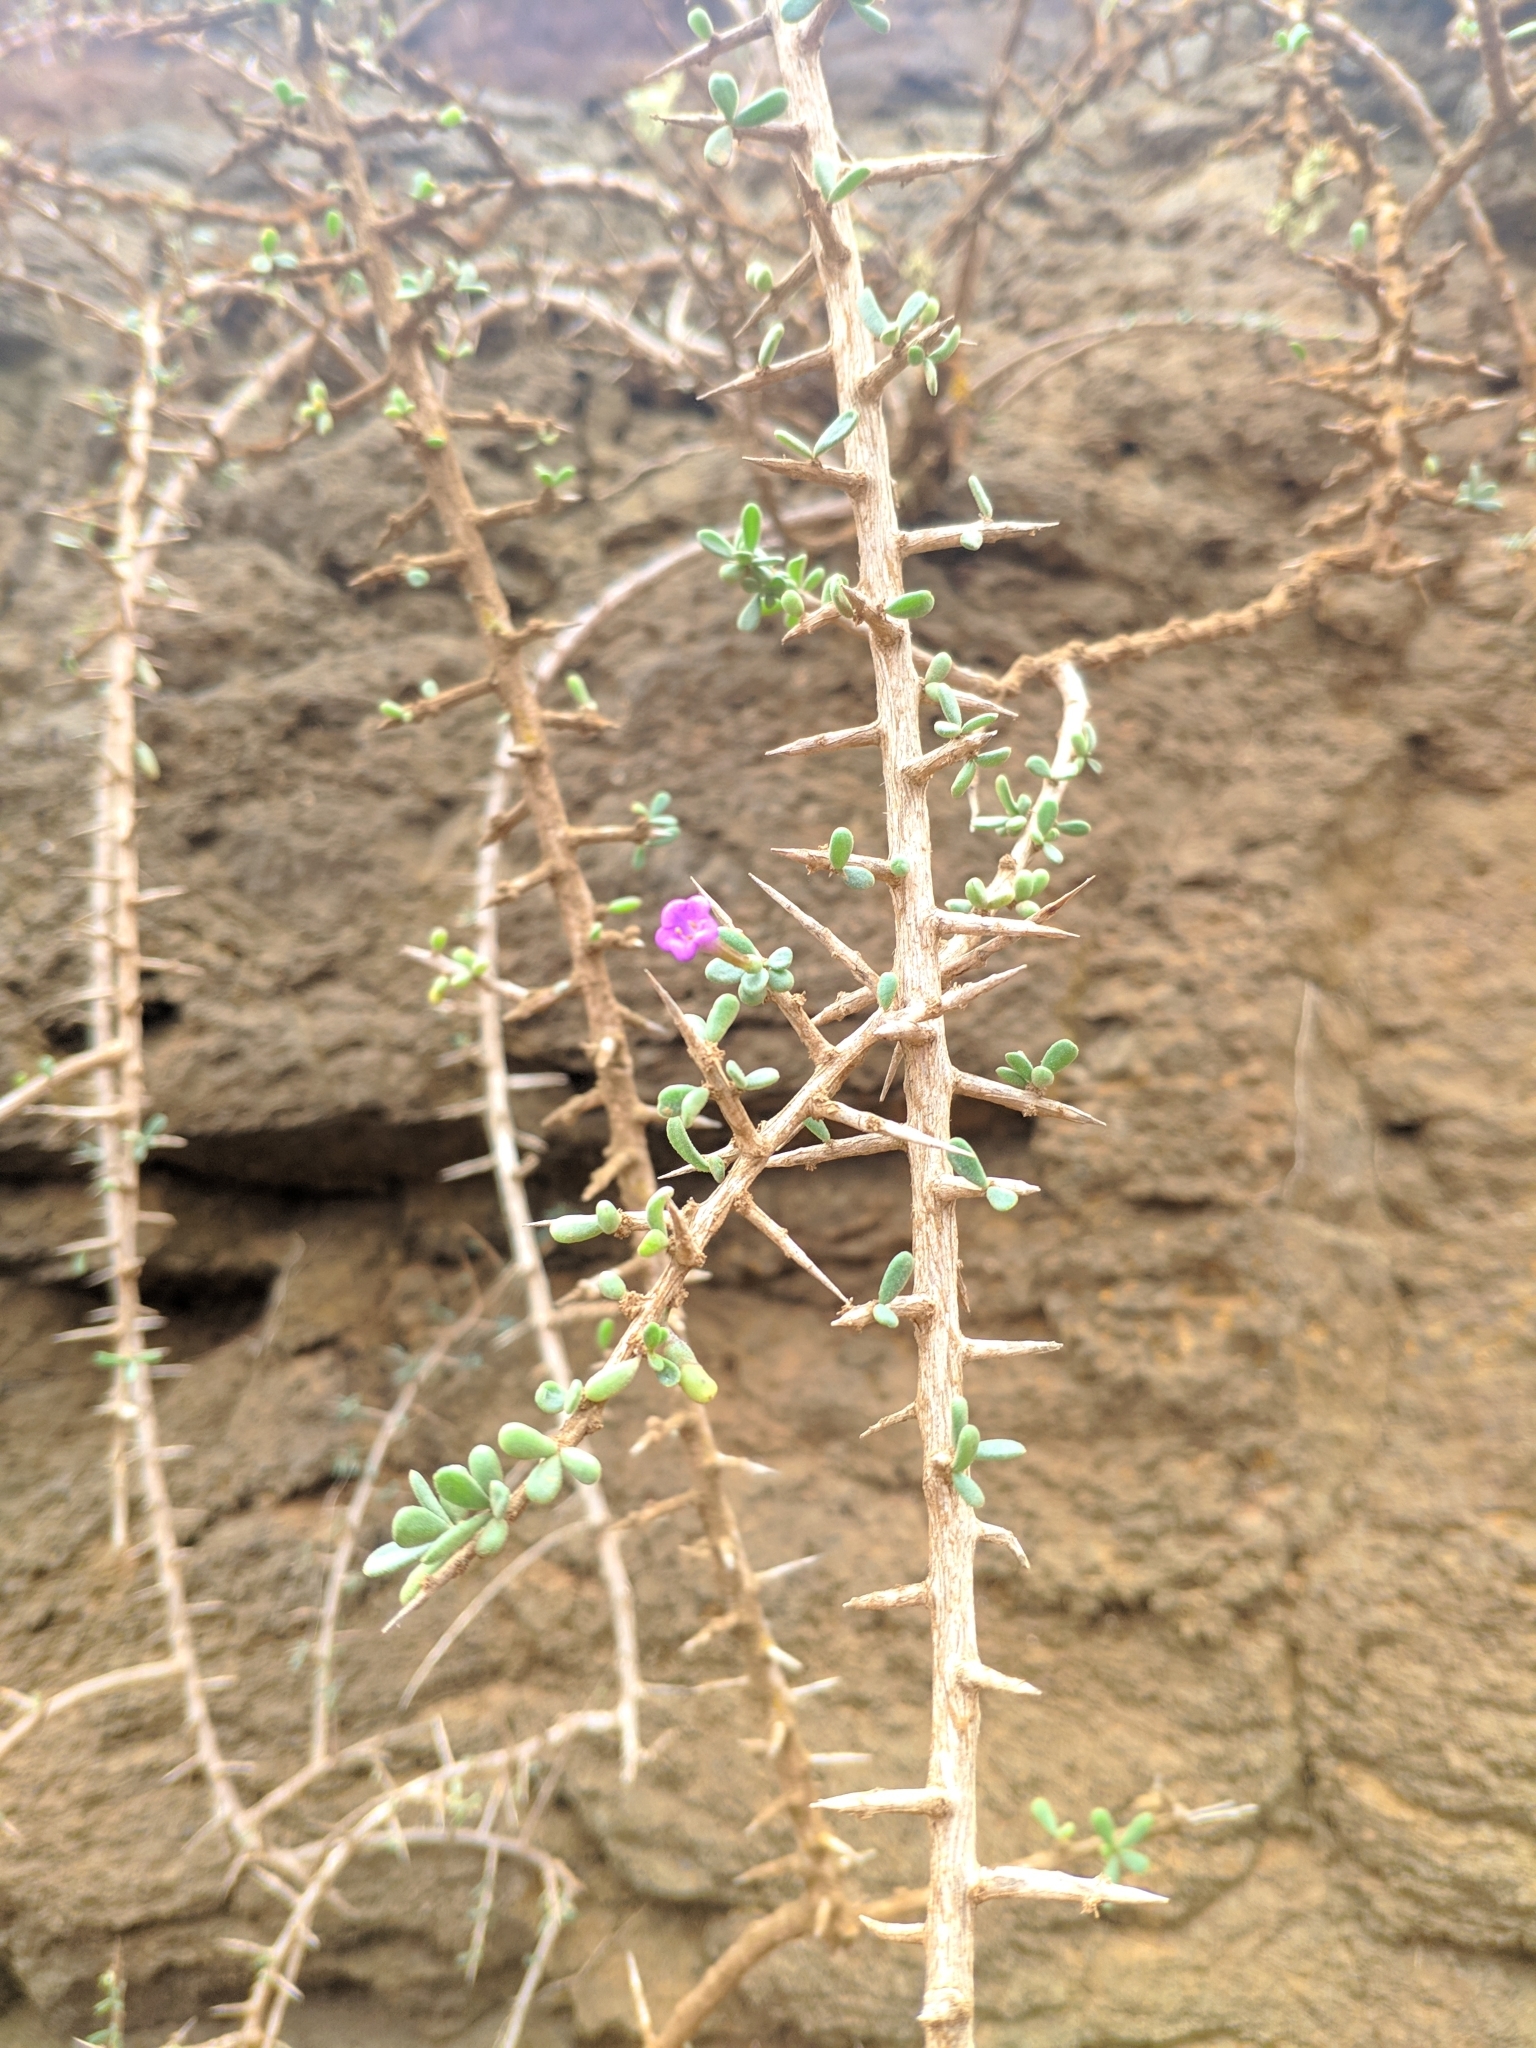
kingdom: Plantae
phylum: Tracheophyta
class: Magnoliopsida
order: Solanales
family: Solanaceae
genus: Lycium
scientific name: Lycium intricatum
